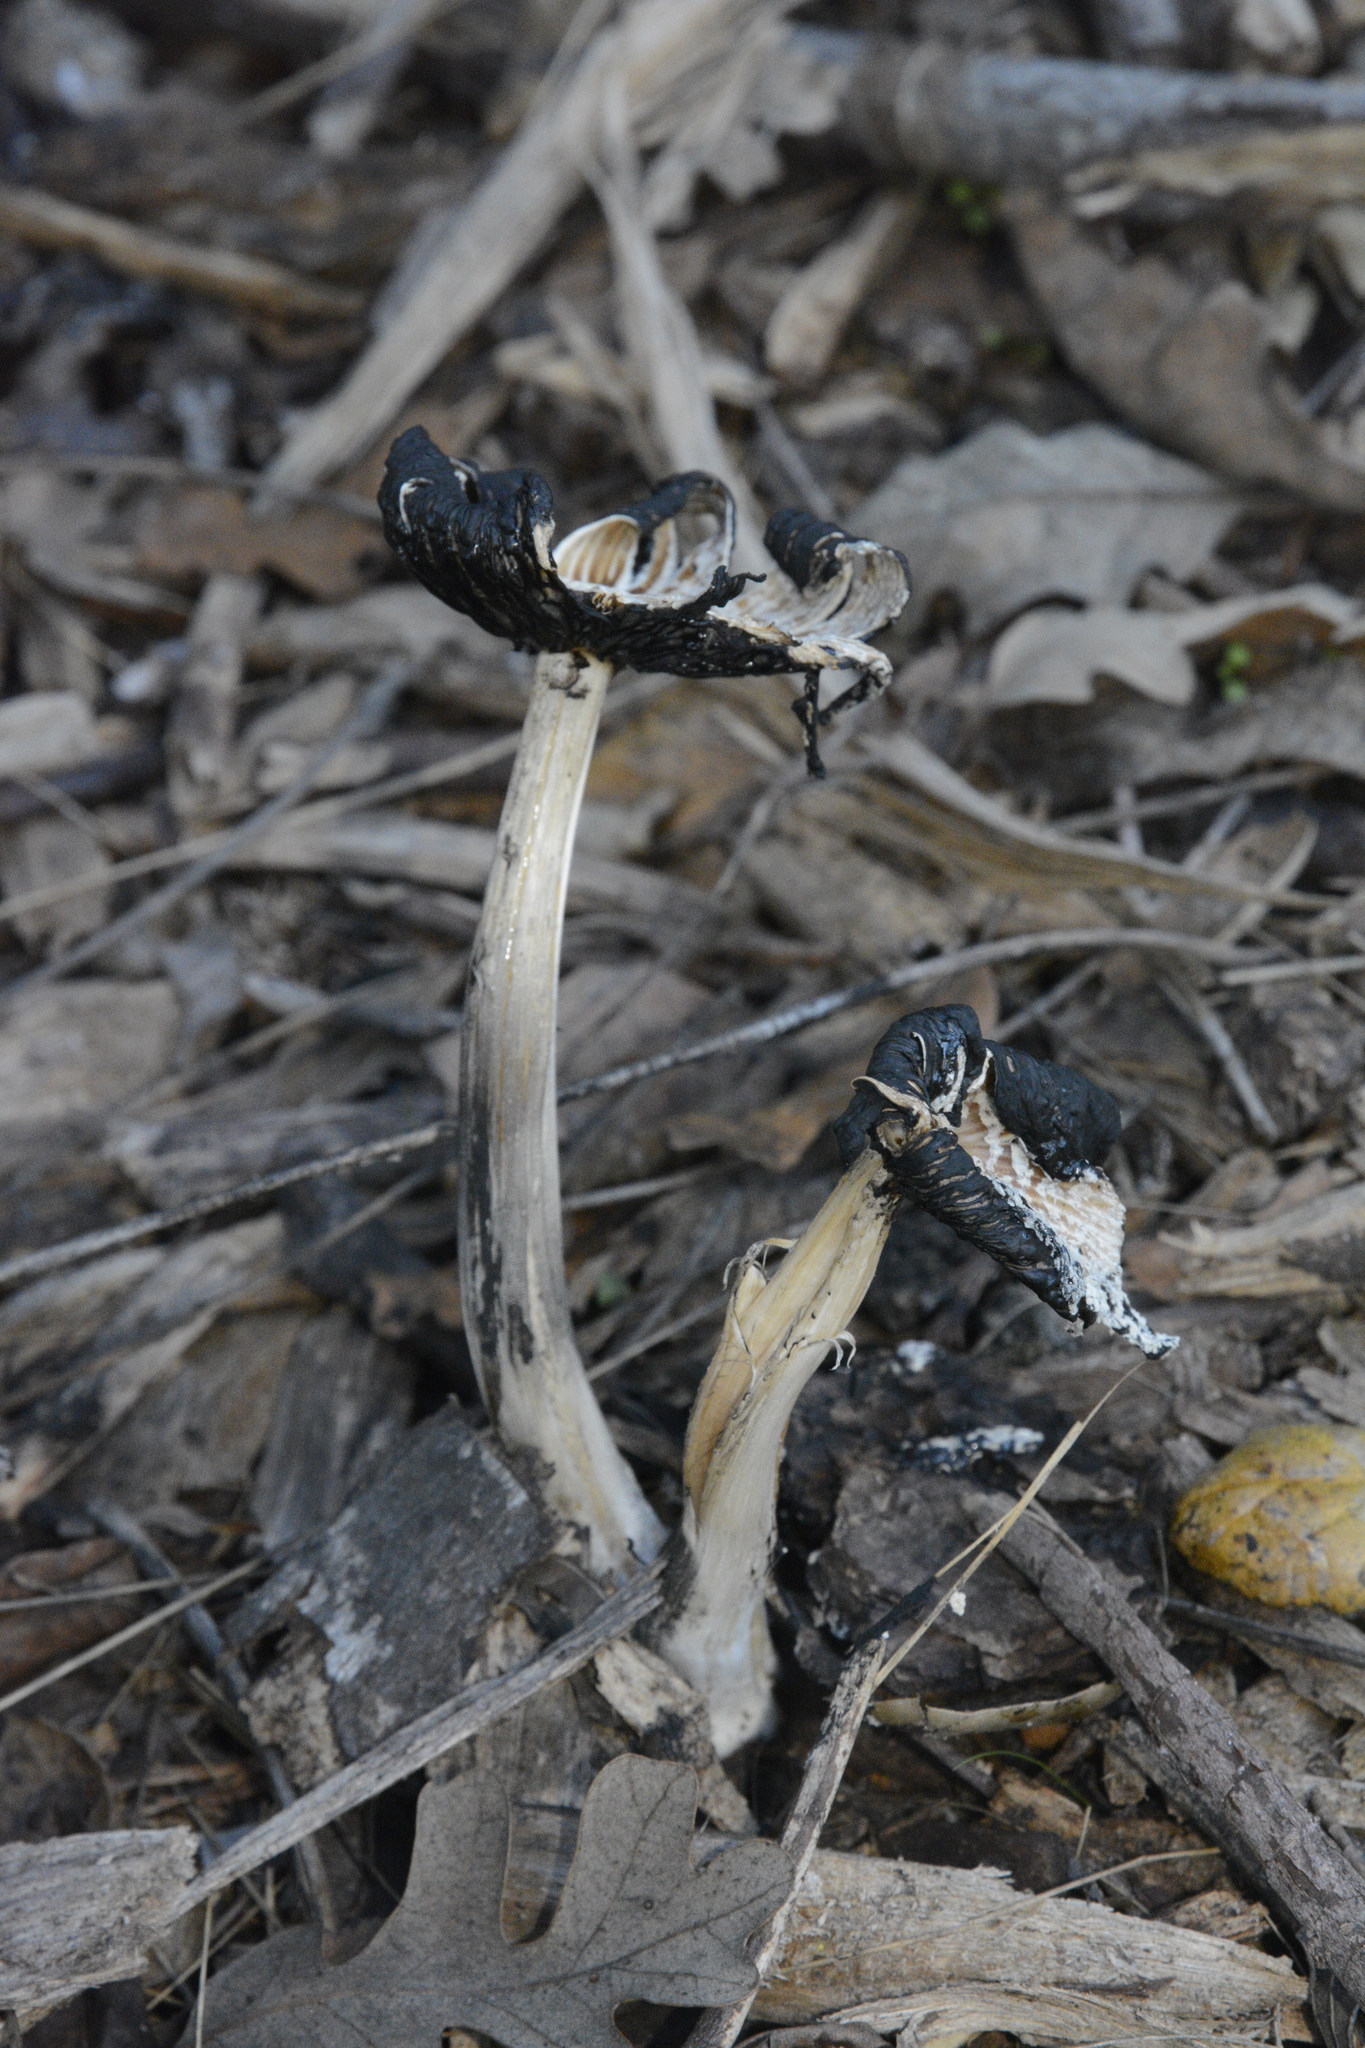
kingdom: Fungi
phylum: Basidiomycota
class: Agaricomycetes
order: Agaricales
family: Psathyrellaceae
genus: Coprinellus
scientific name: Coprinellus flocculosus
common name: Flocculose inkcap
